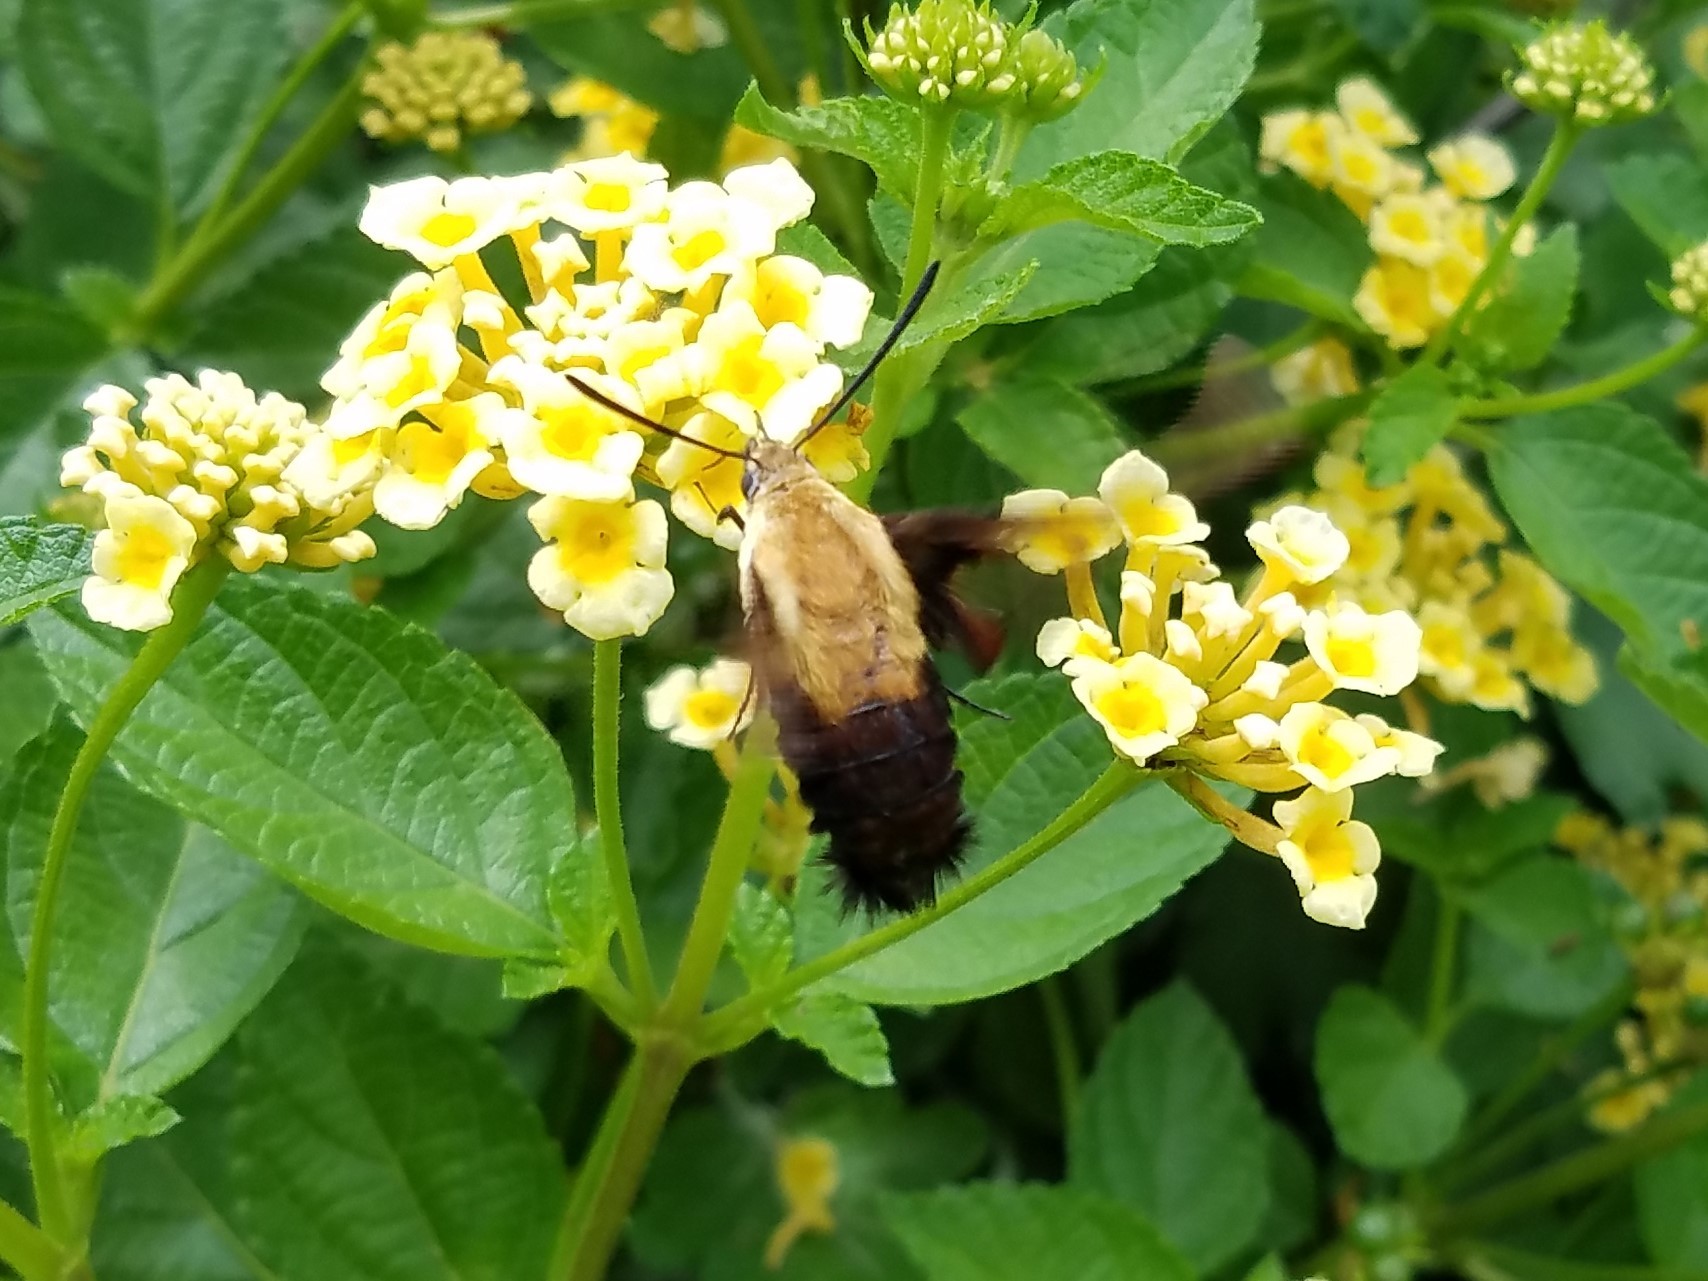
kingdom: Animalia
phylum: Arthropoda
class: Insecta
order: Lepidoptera
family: Sphingidae
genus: Hemaris
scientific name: Hemaris diffinis
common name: Bumblebee moth
